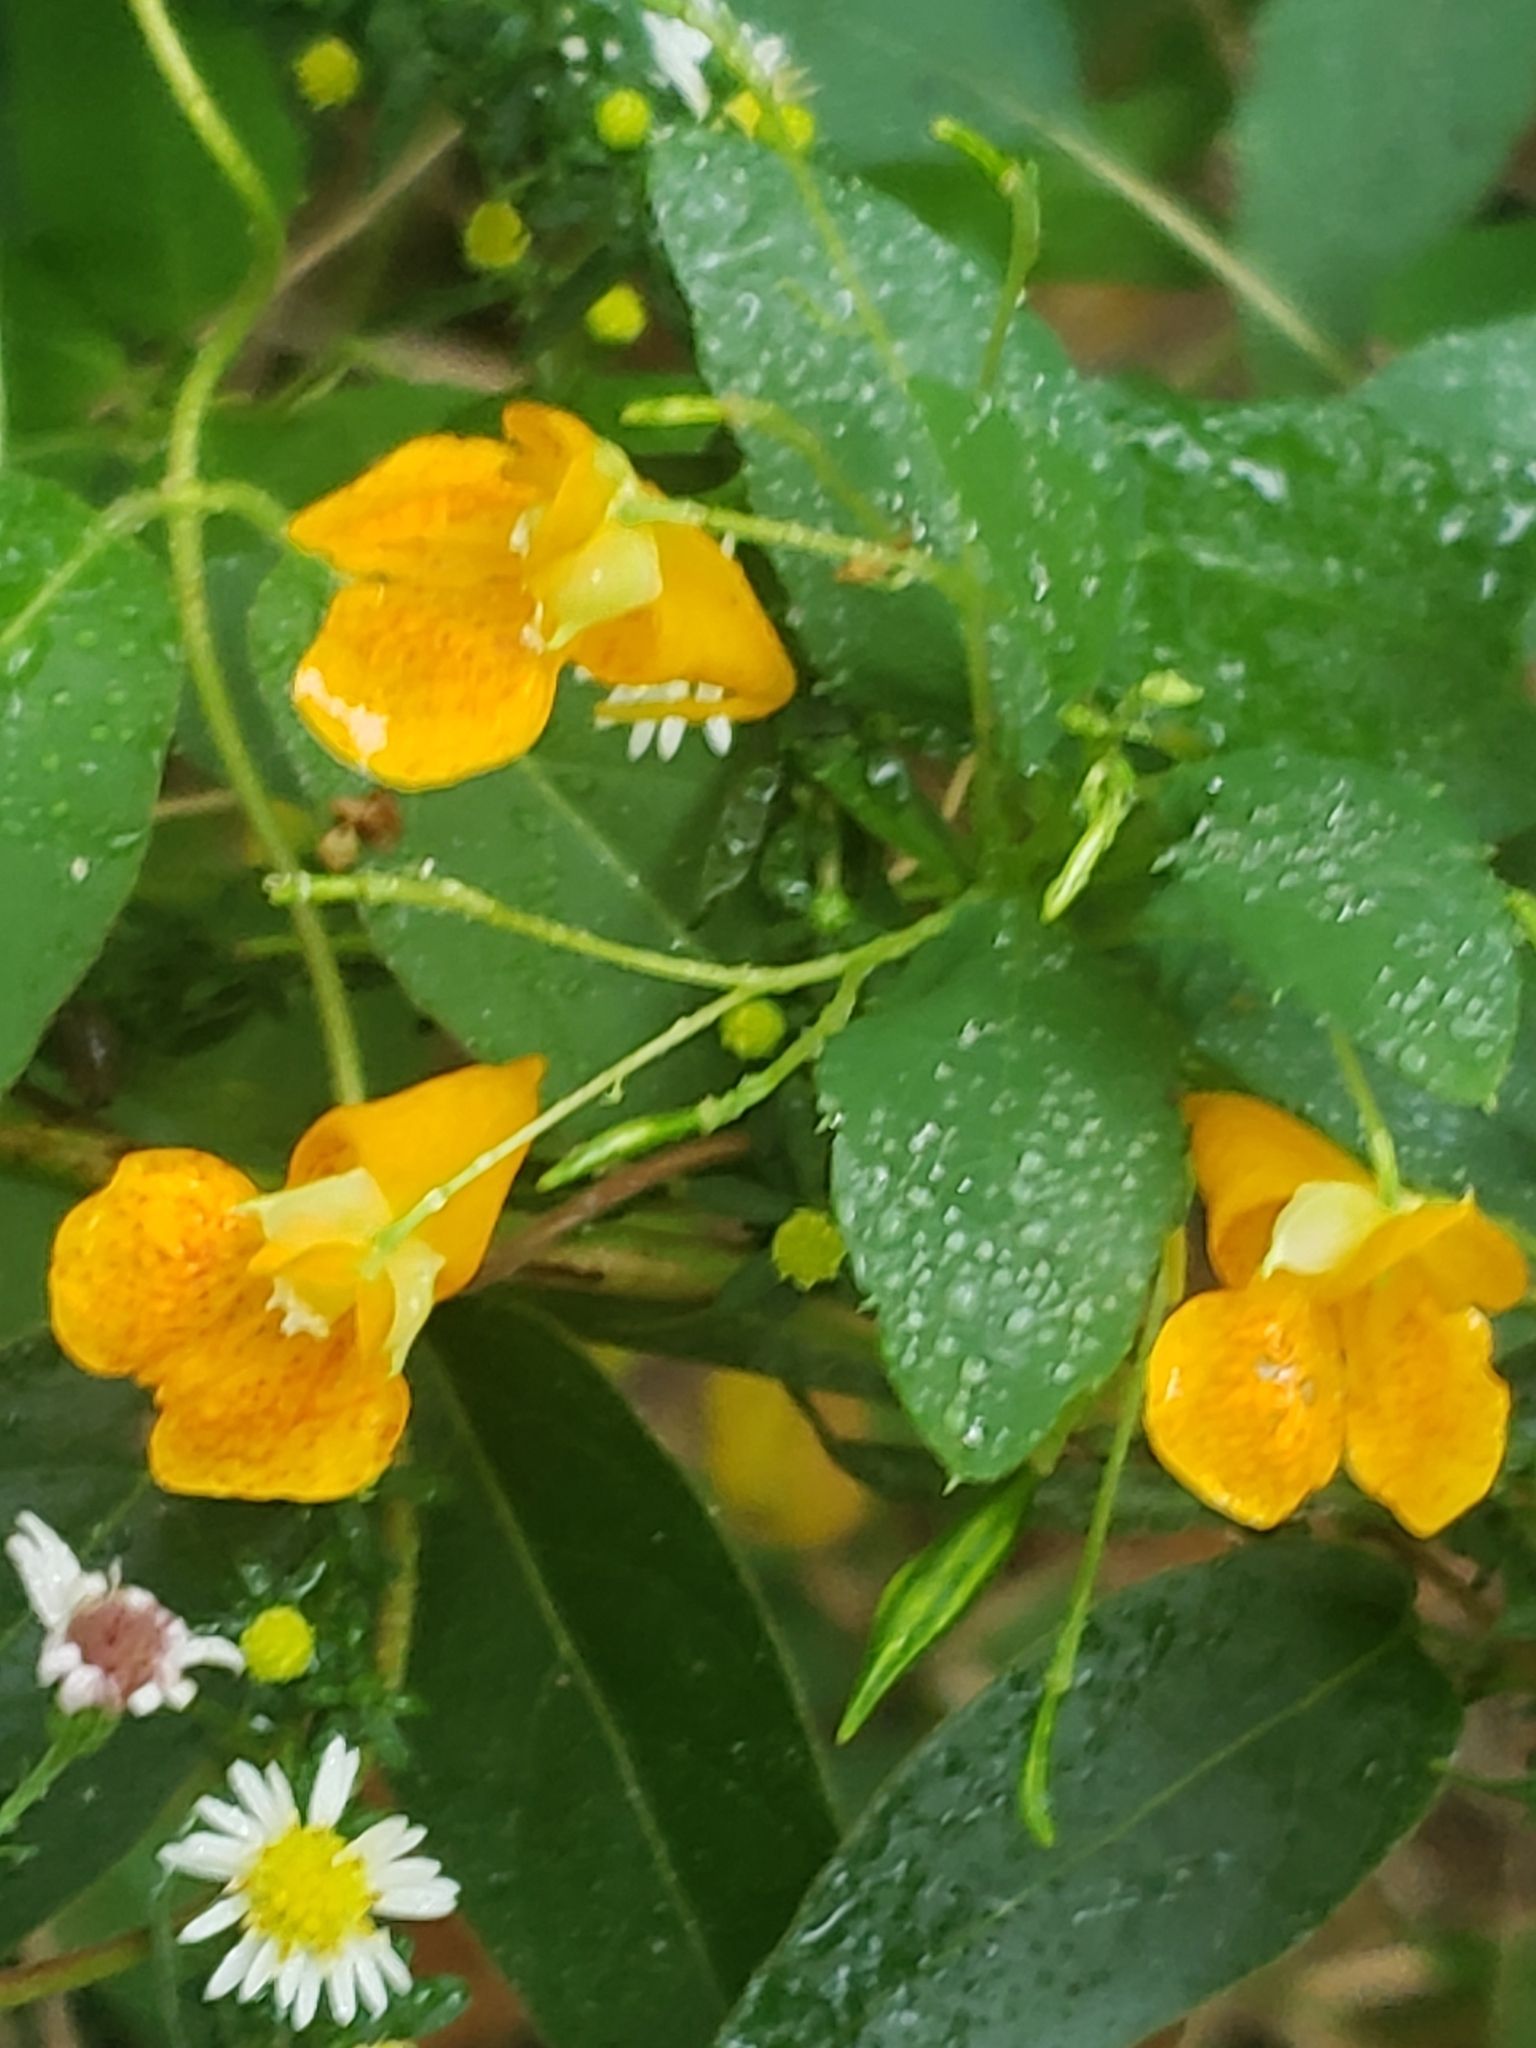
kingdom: Plantae
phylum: Tracheophyta
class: Magnoliopsida
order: Ericales
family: Balsaminaceae
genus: Impatiens
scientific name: Impatiens capensis
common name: Orange balsam
